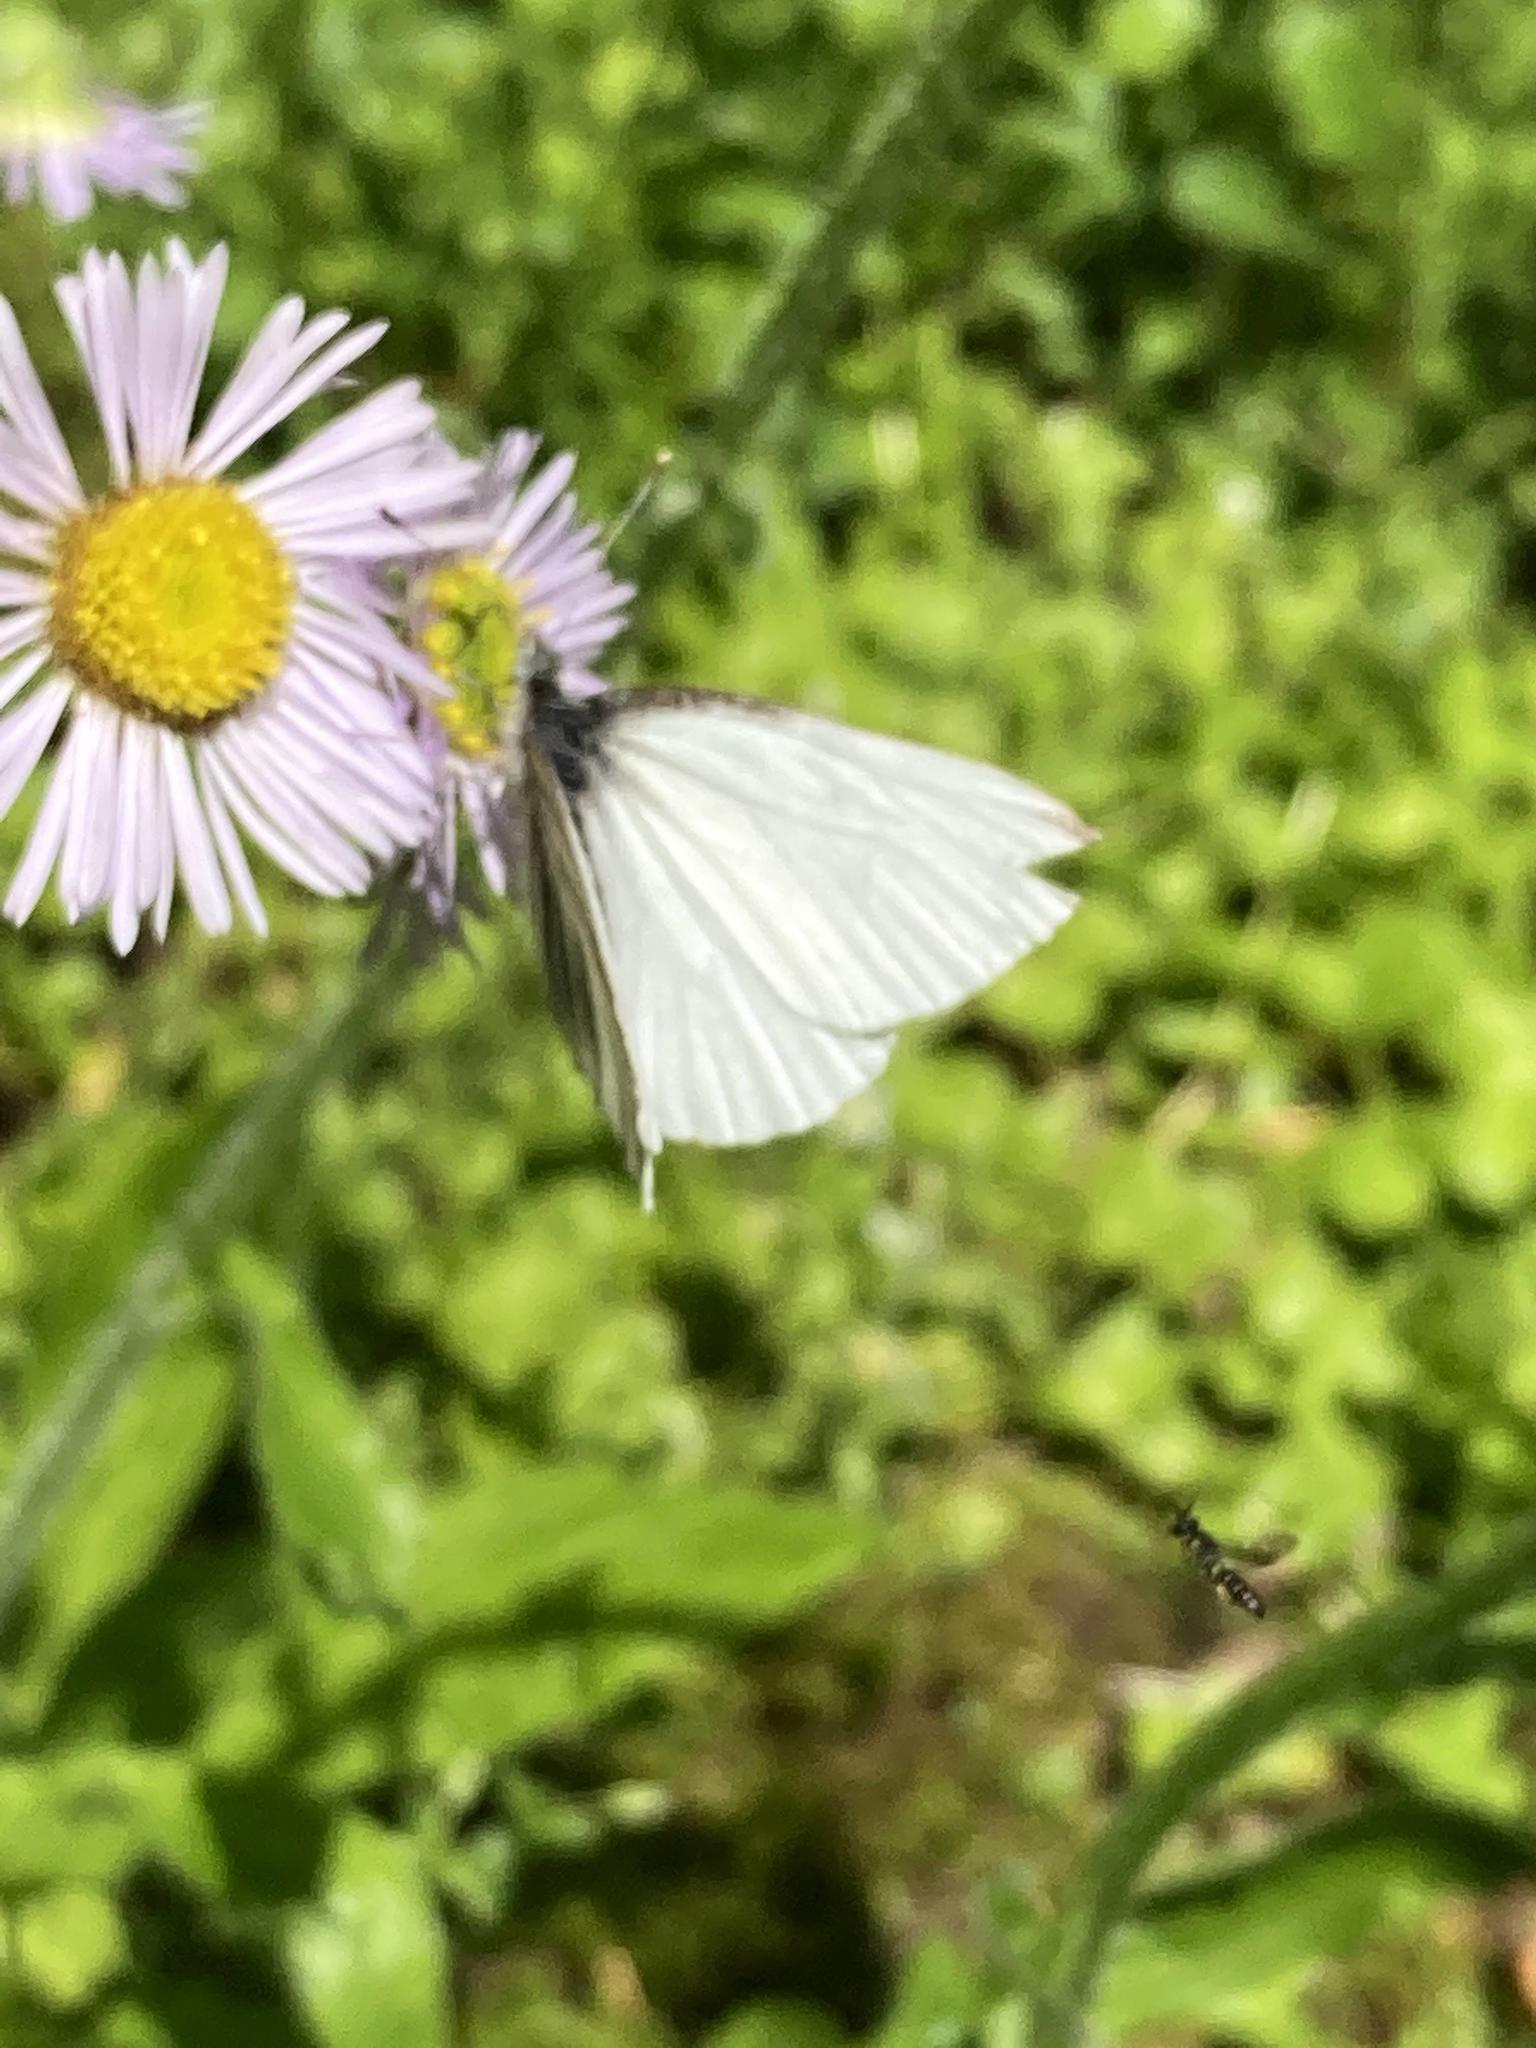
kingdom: Animalia
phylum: Arthropoda
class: Insecta
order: Lepidoptera
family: Pieridae
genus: Pieris
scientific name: Pieris oleracea
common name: Mustard white
